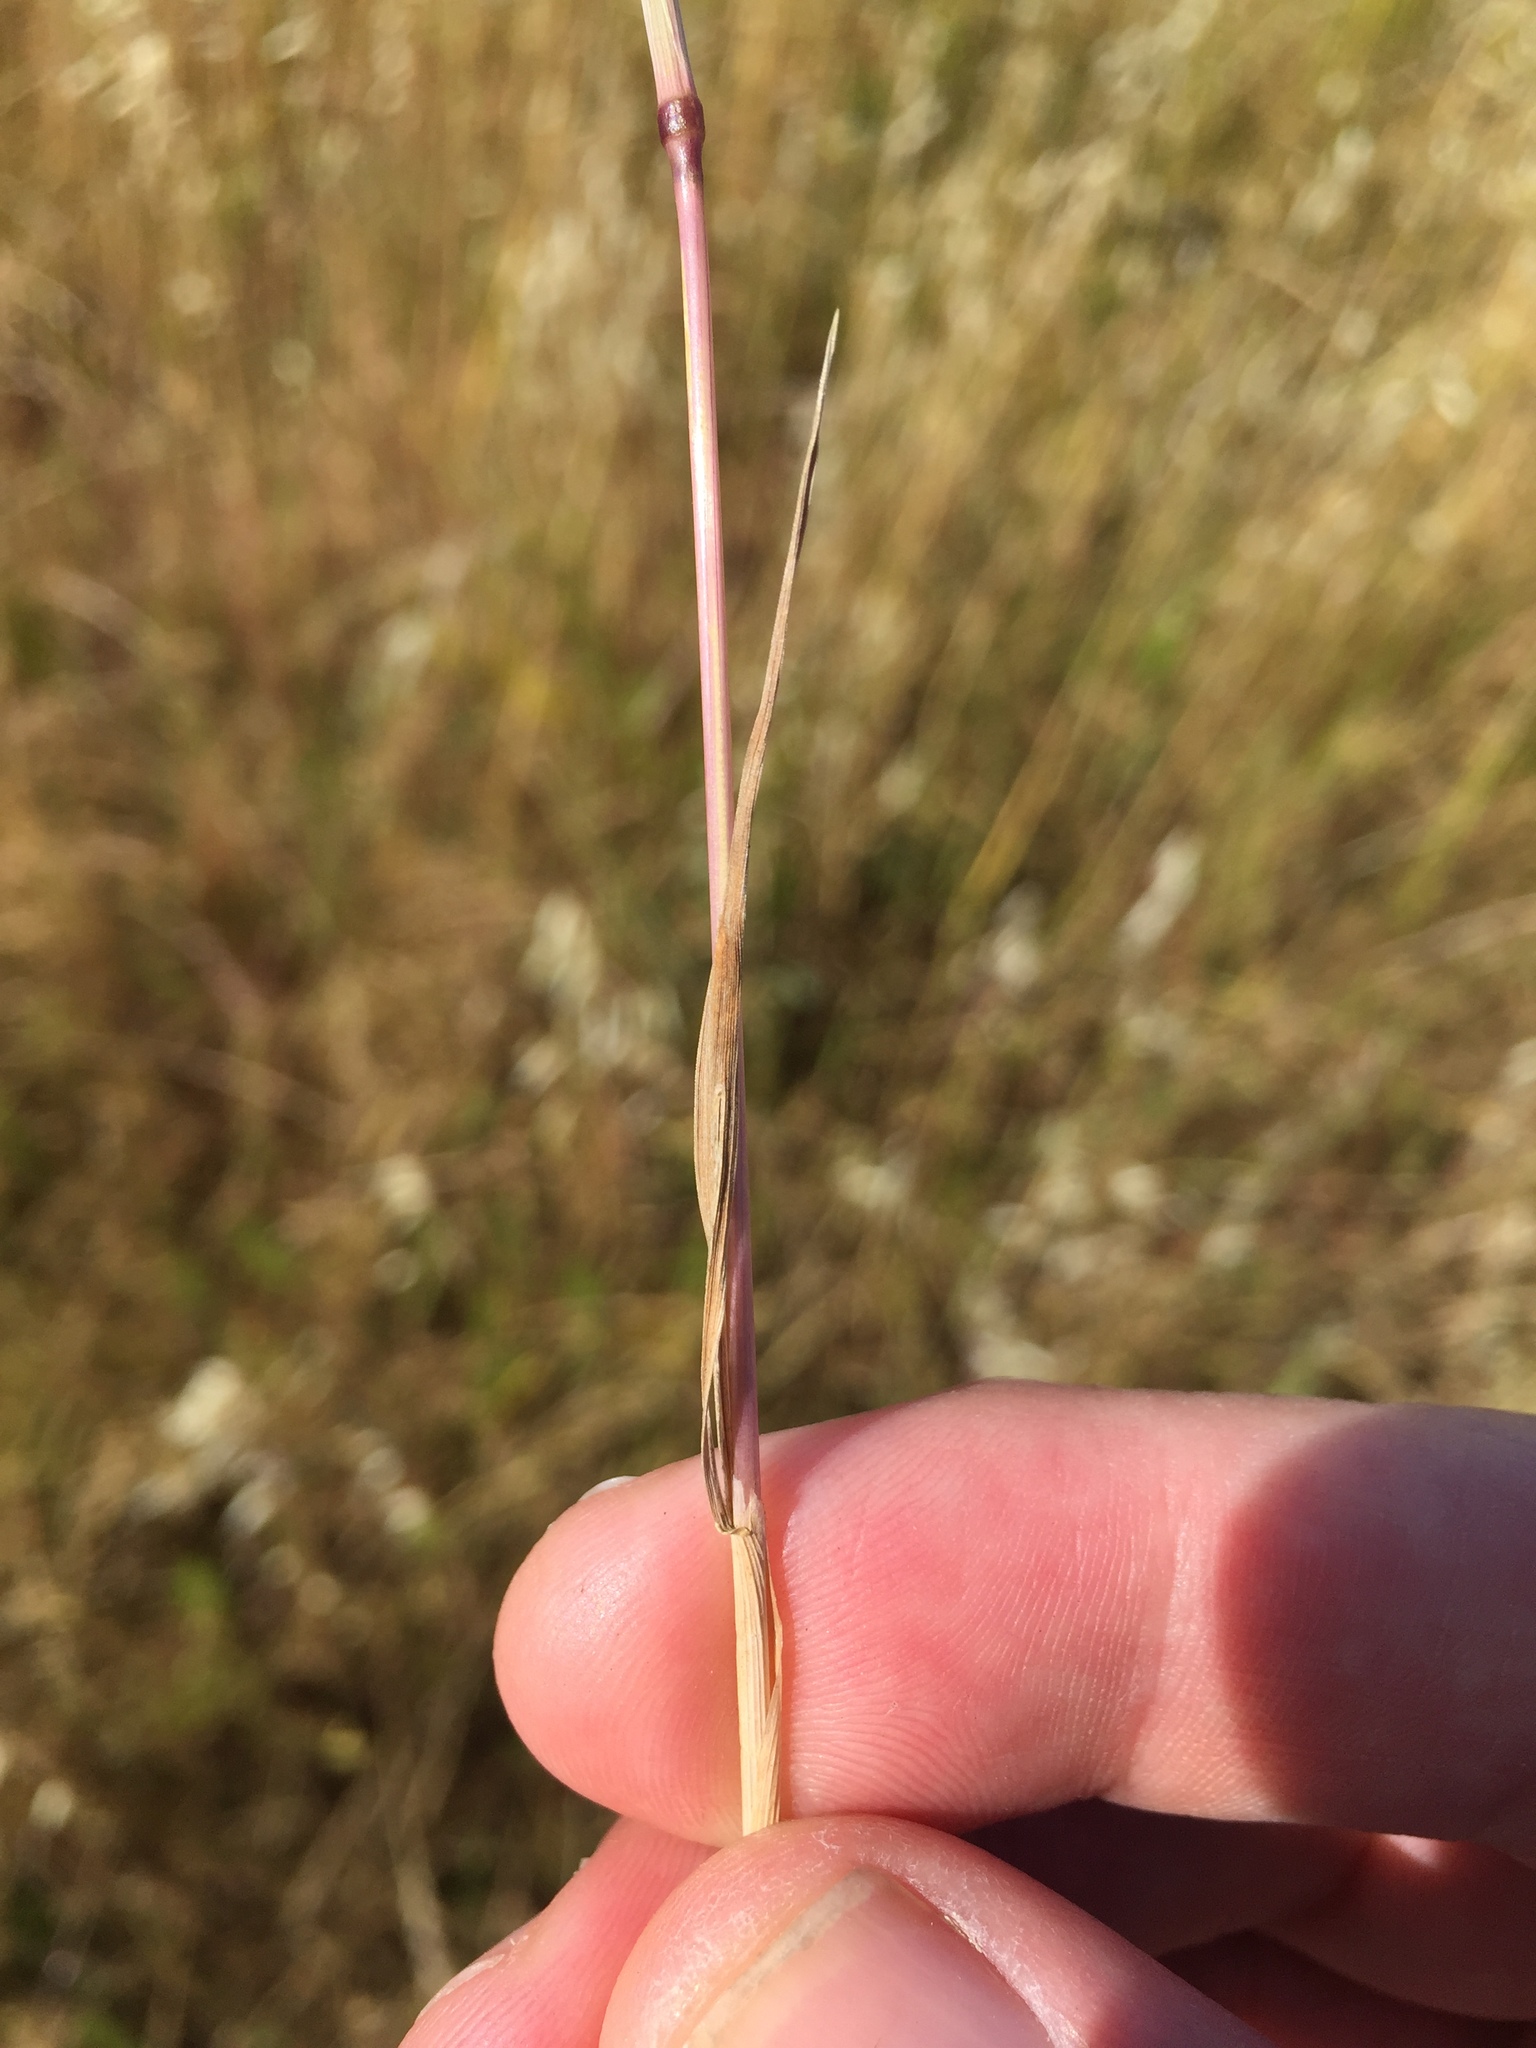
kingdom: Plantae
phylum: Tracheophyta
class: Liliopsida
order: Poales
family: Poaceae
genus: Gastridium
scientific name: Gastridium phleoides
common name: Nit grass
